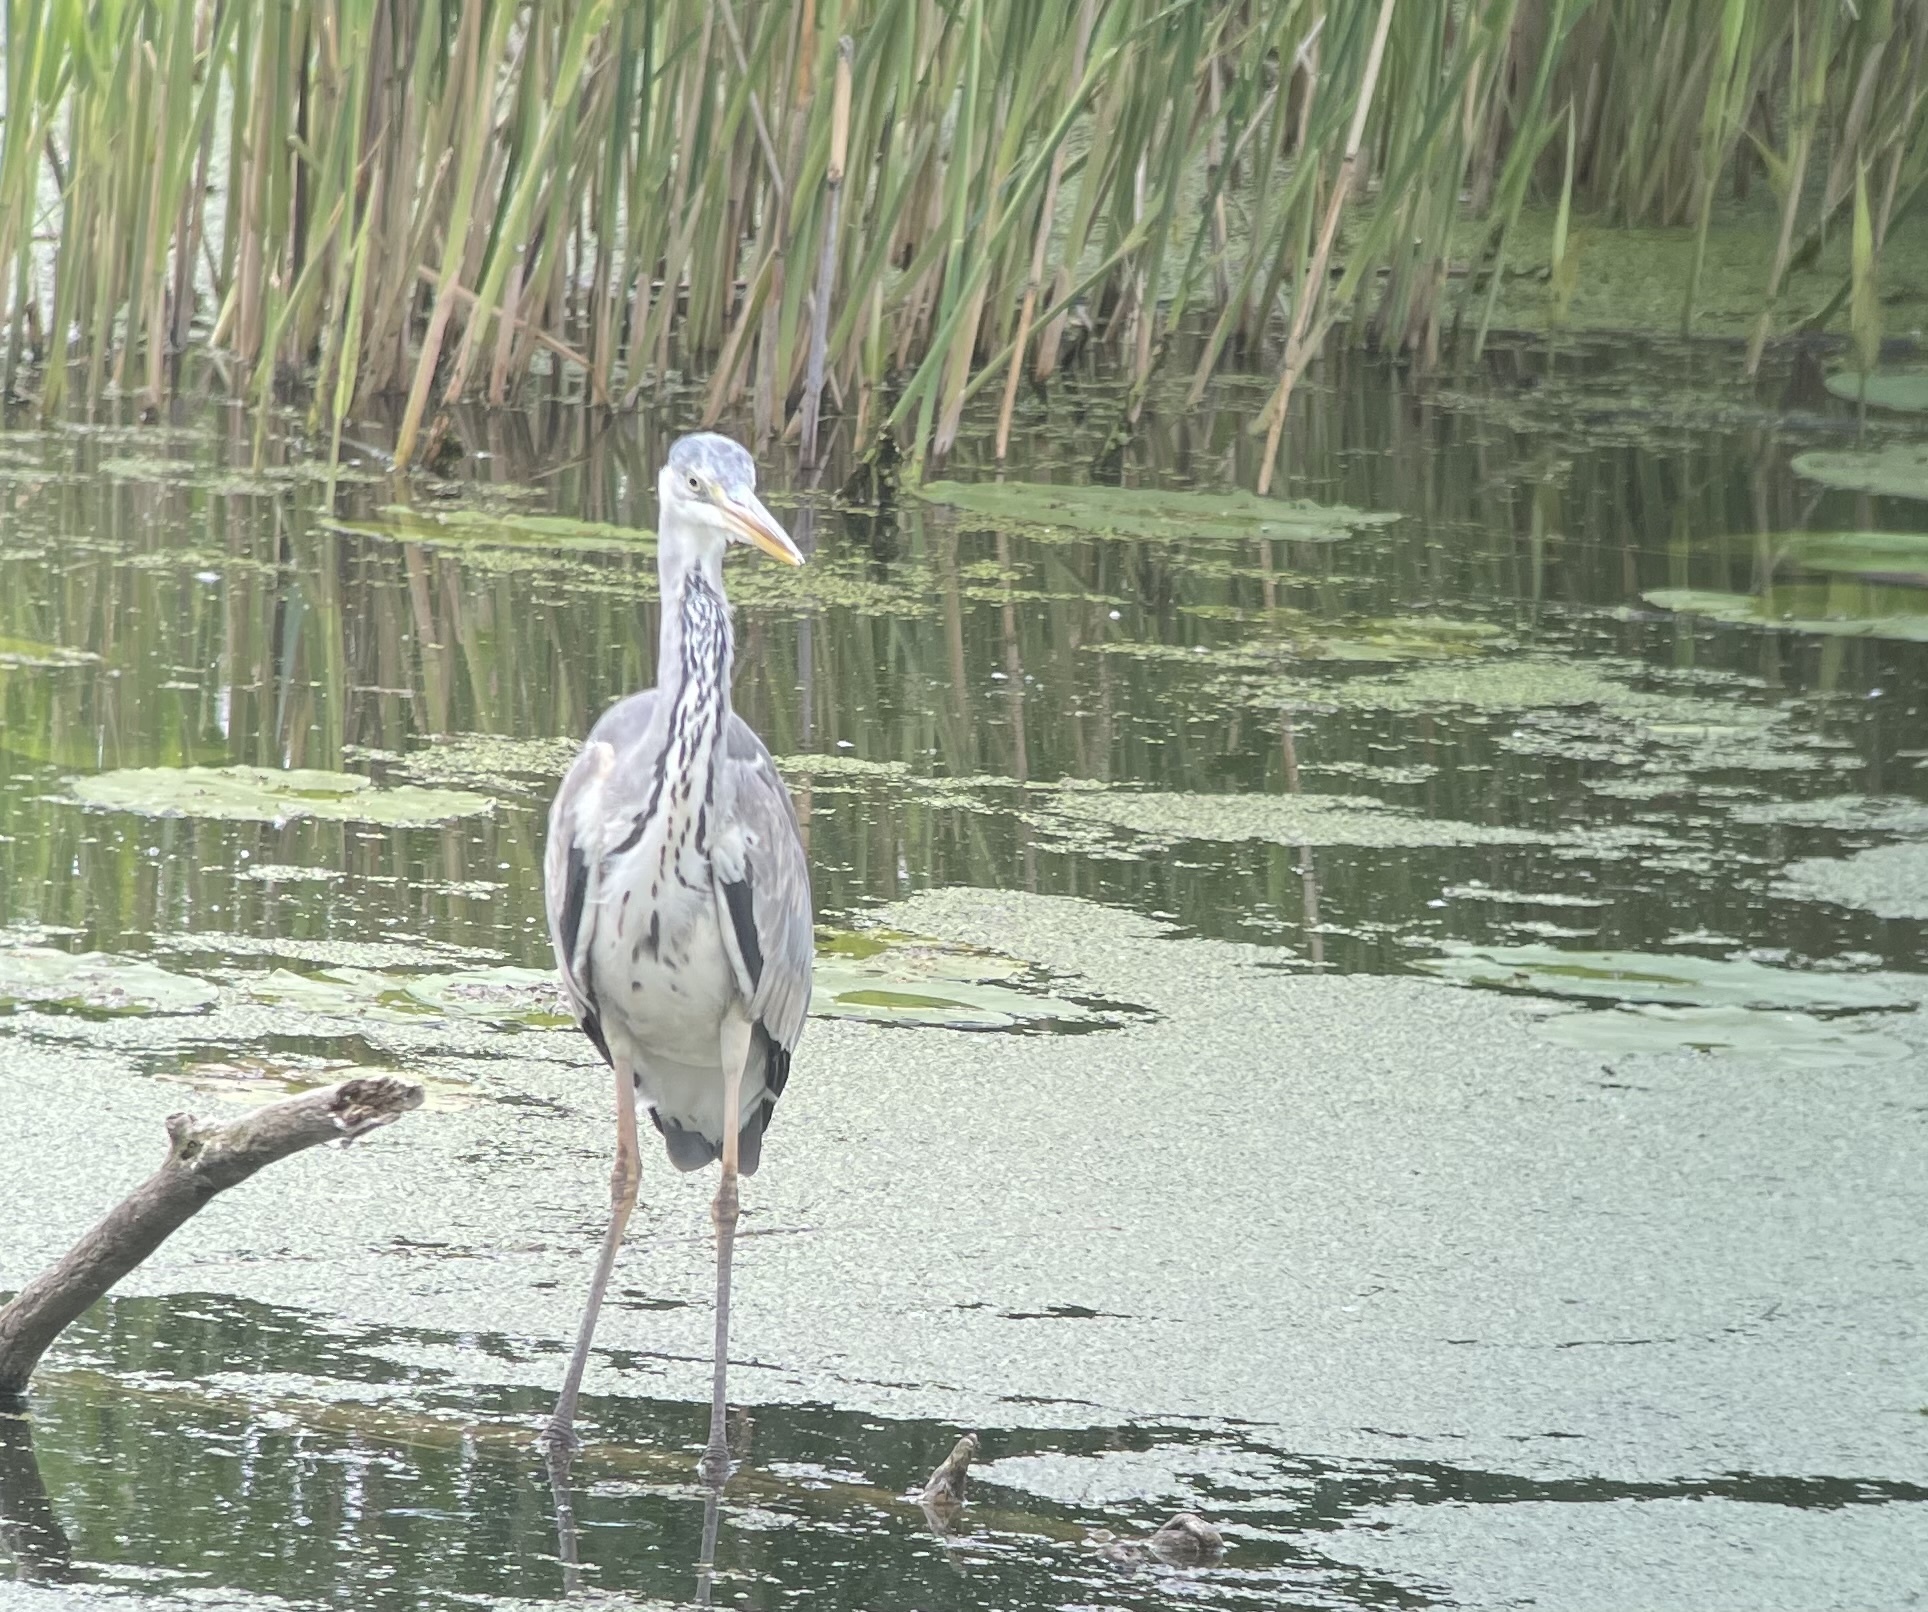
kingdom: Animalia
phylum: Chordata
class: Aves
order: Pelecaniformes
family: Ardeidae
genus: Ardea
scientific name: Ardea cinerea
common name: Grey heron
